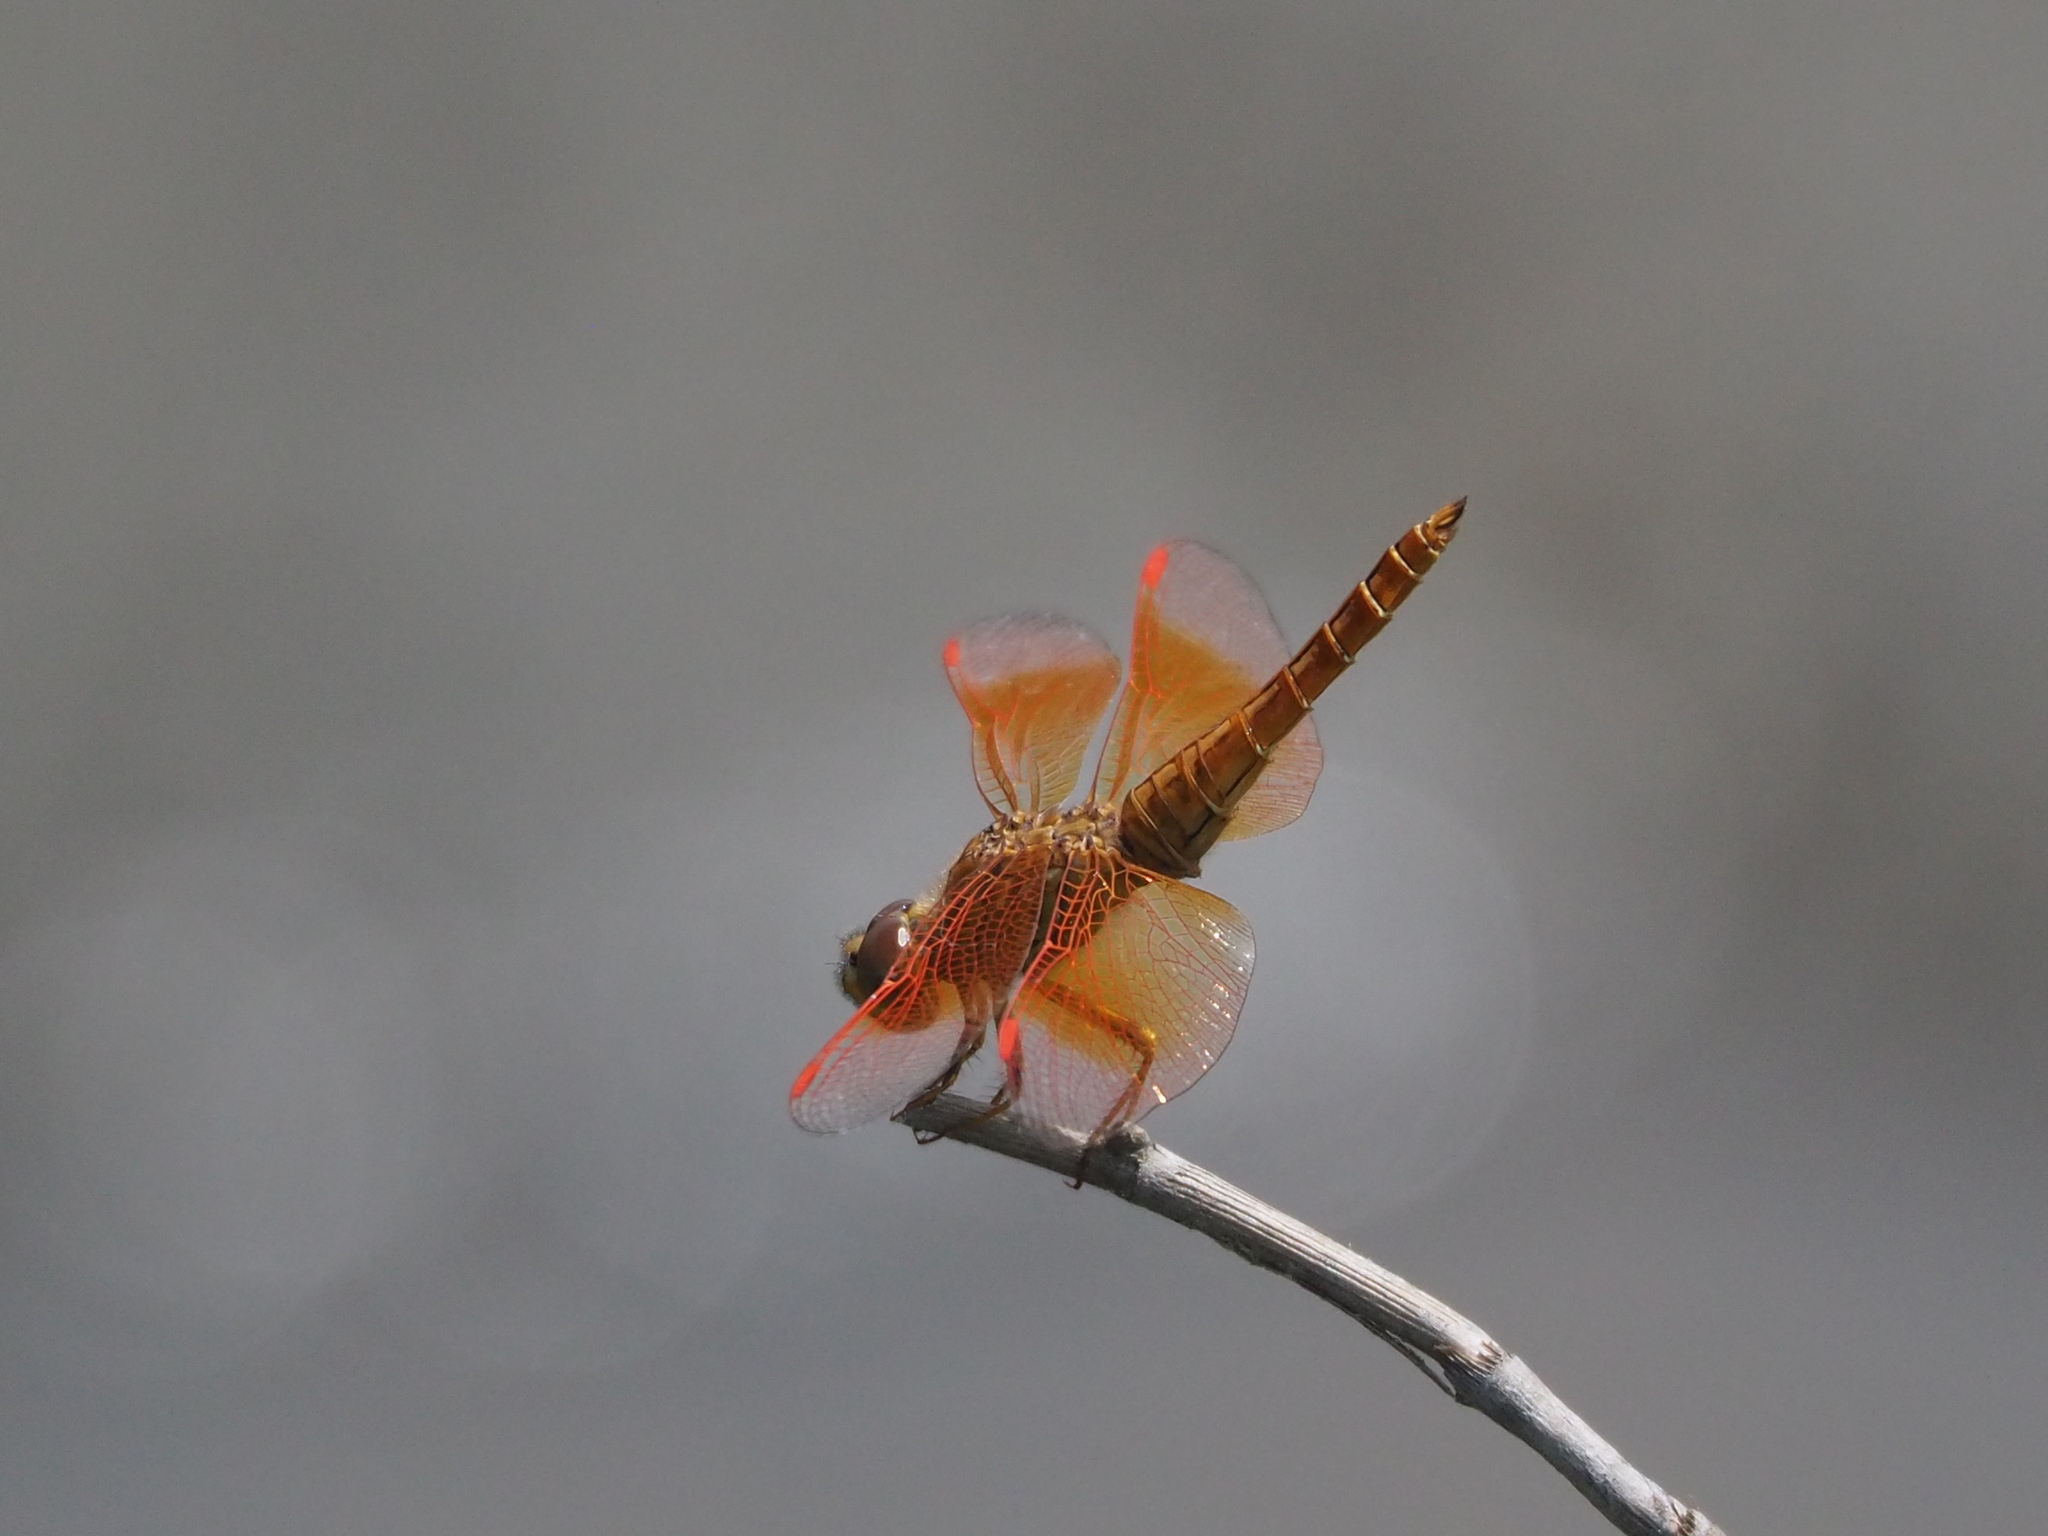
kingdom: Animalia
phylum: Arthropoda
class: Insecta
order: Odonata
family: Libellulidae
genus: Brachythemis
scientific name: Brachythemis contaminata
